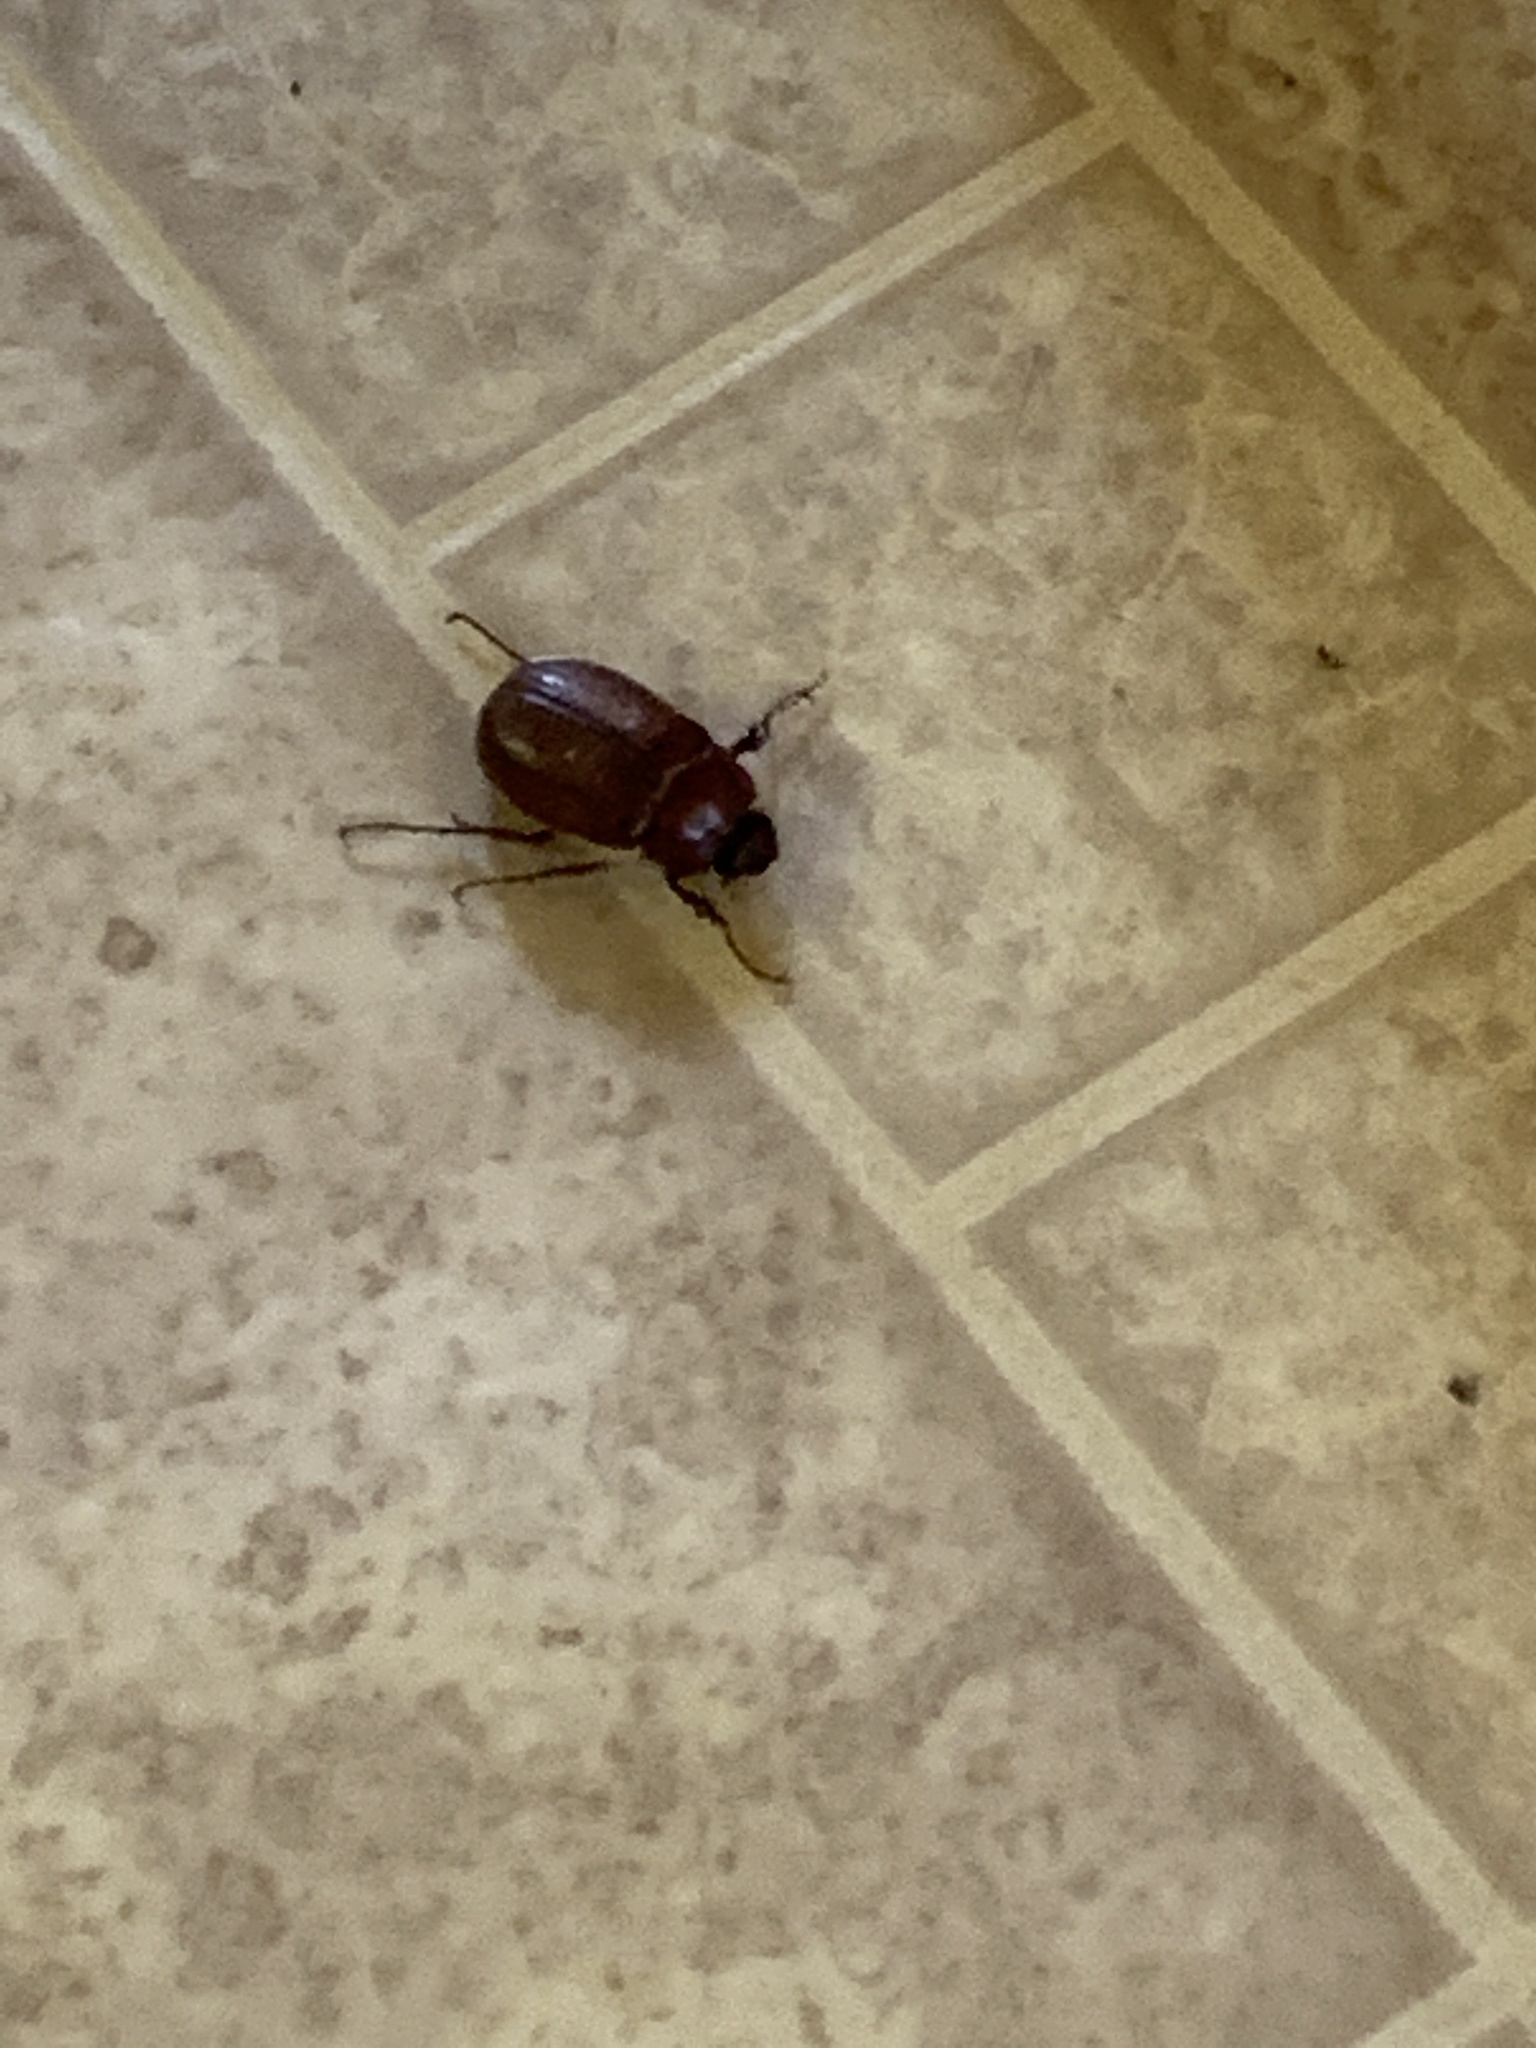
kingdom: Animalia
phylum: Arthropoda
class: Insecta
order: Coleoptera
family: Scarabaeidae
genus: Phyllophaga
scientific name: Phyllophaga crassissima
